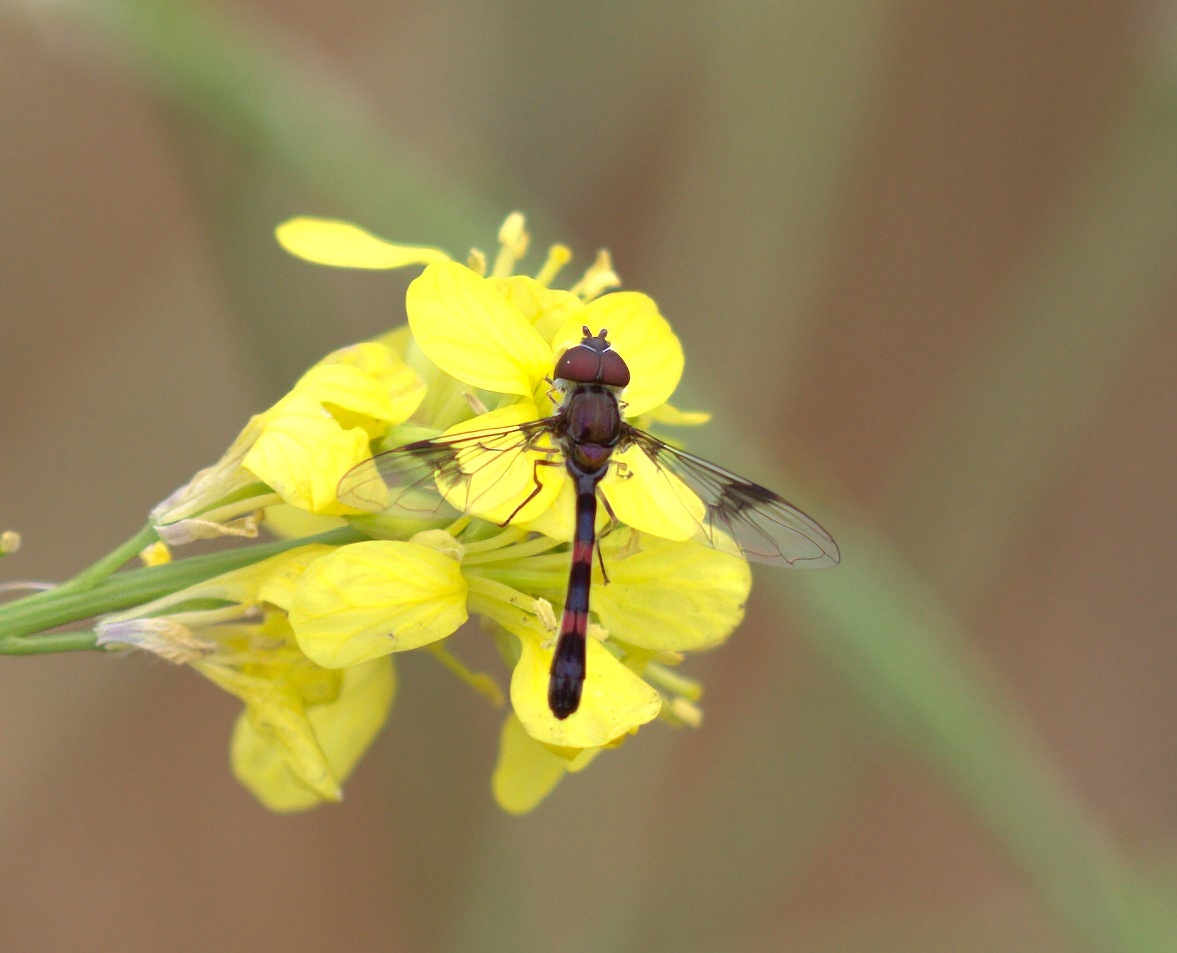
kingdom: Animalia
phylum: Arthropoda
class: Insecta
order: Diptera
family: Syrphidae
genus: Hypocritanus
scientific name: Hypocritanus lemur
